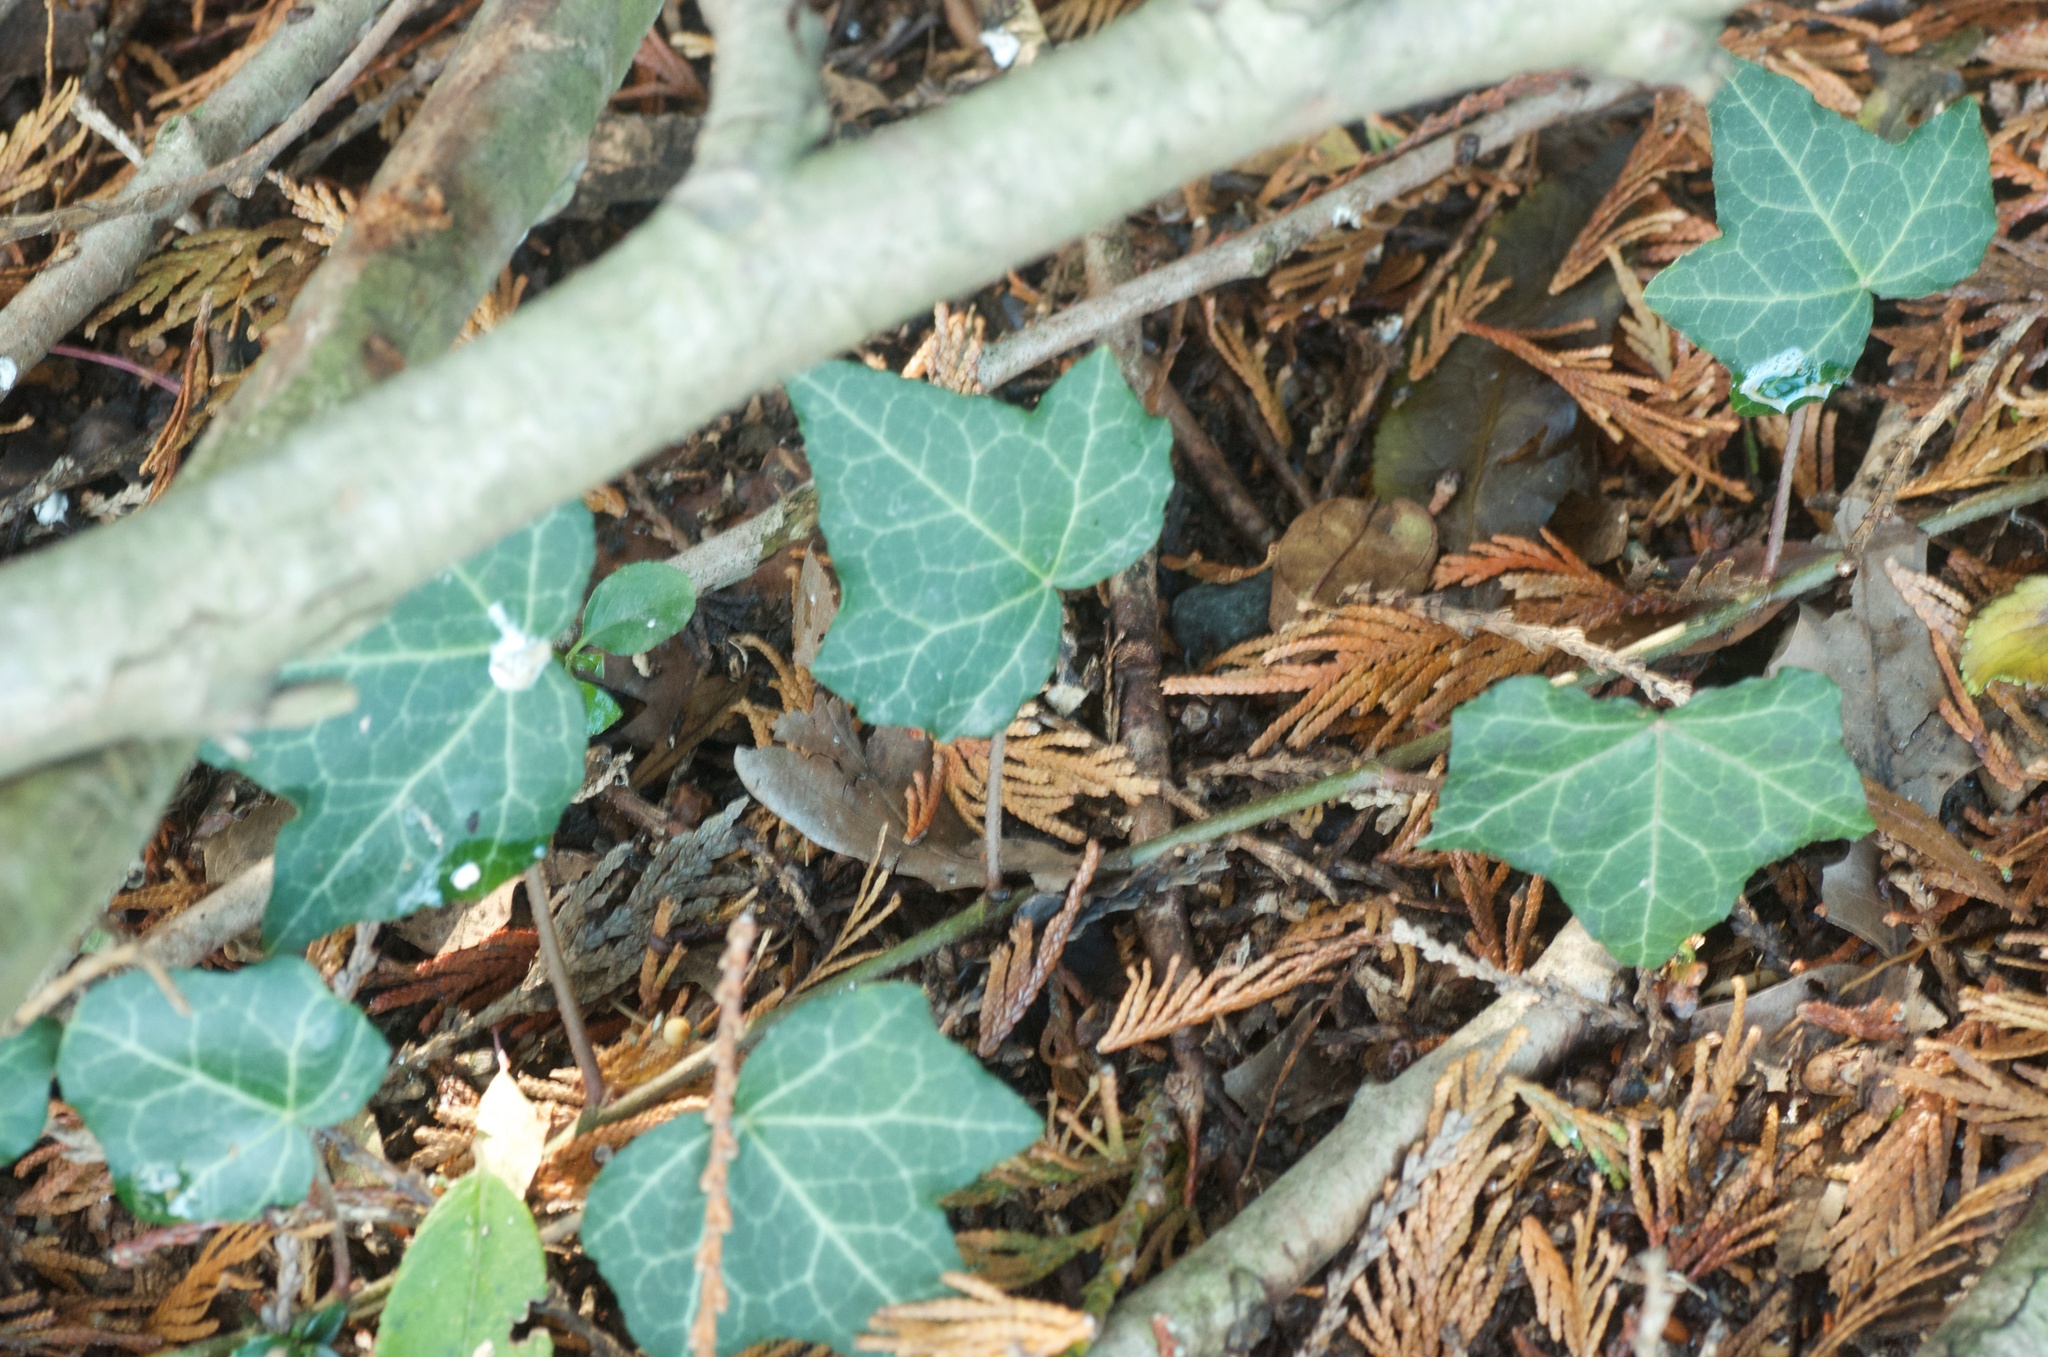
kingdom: Plantae
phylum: Tracheophyta
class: Magnoliopsida
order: Apiales
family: Araliaceae
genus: Hedera
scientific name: Hedera helix
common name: Ivy
